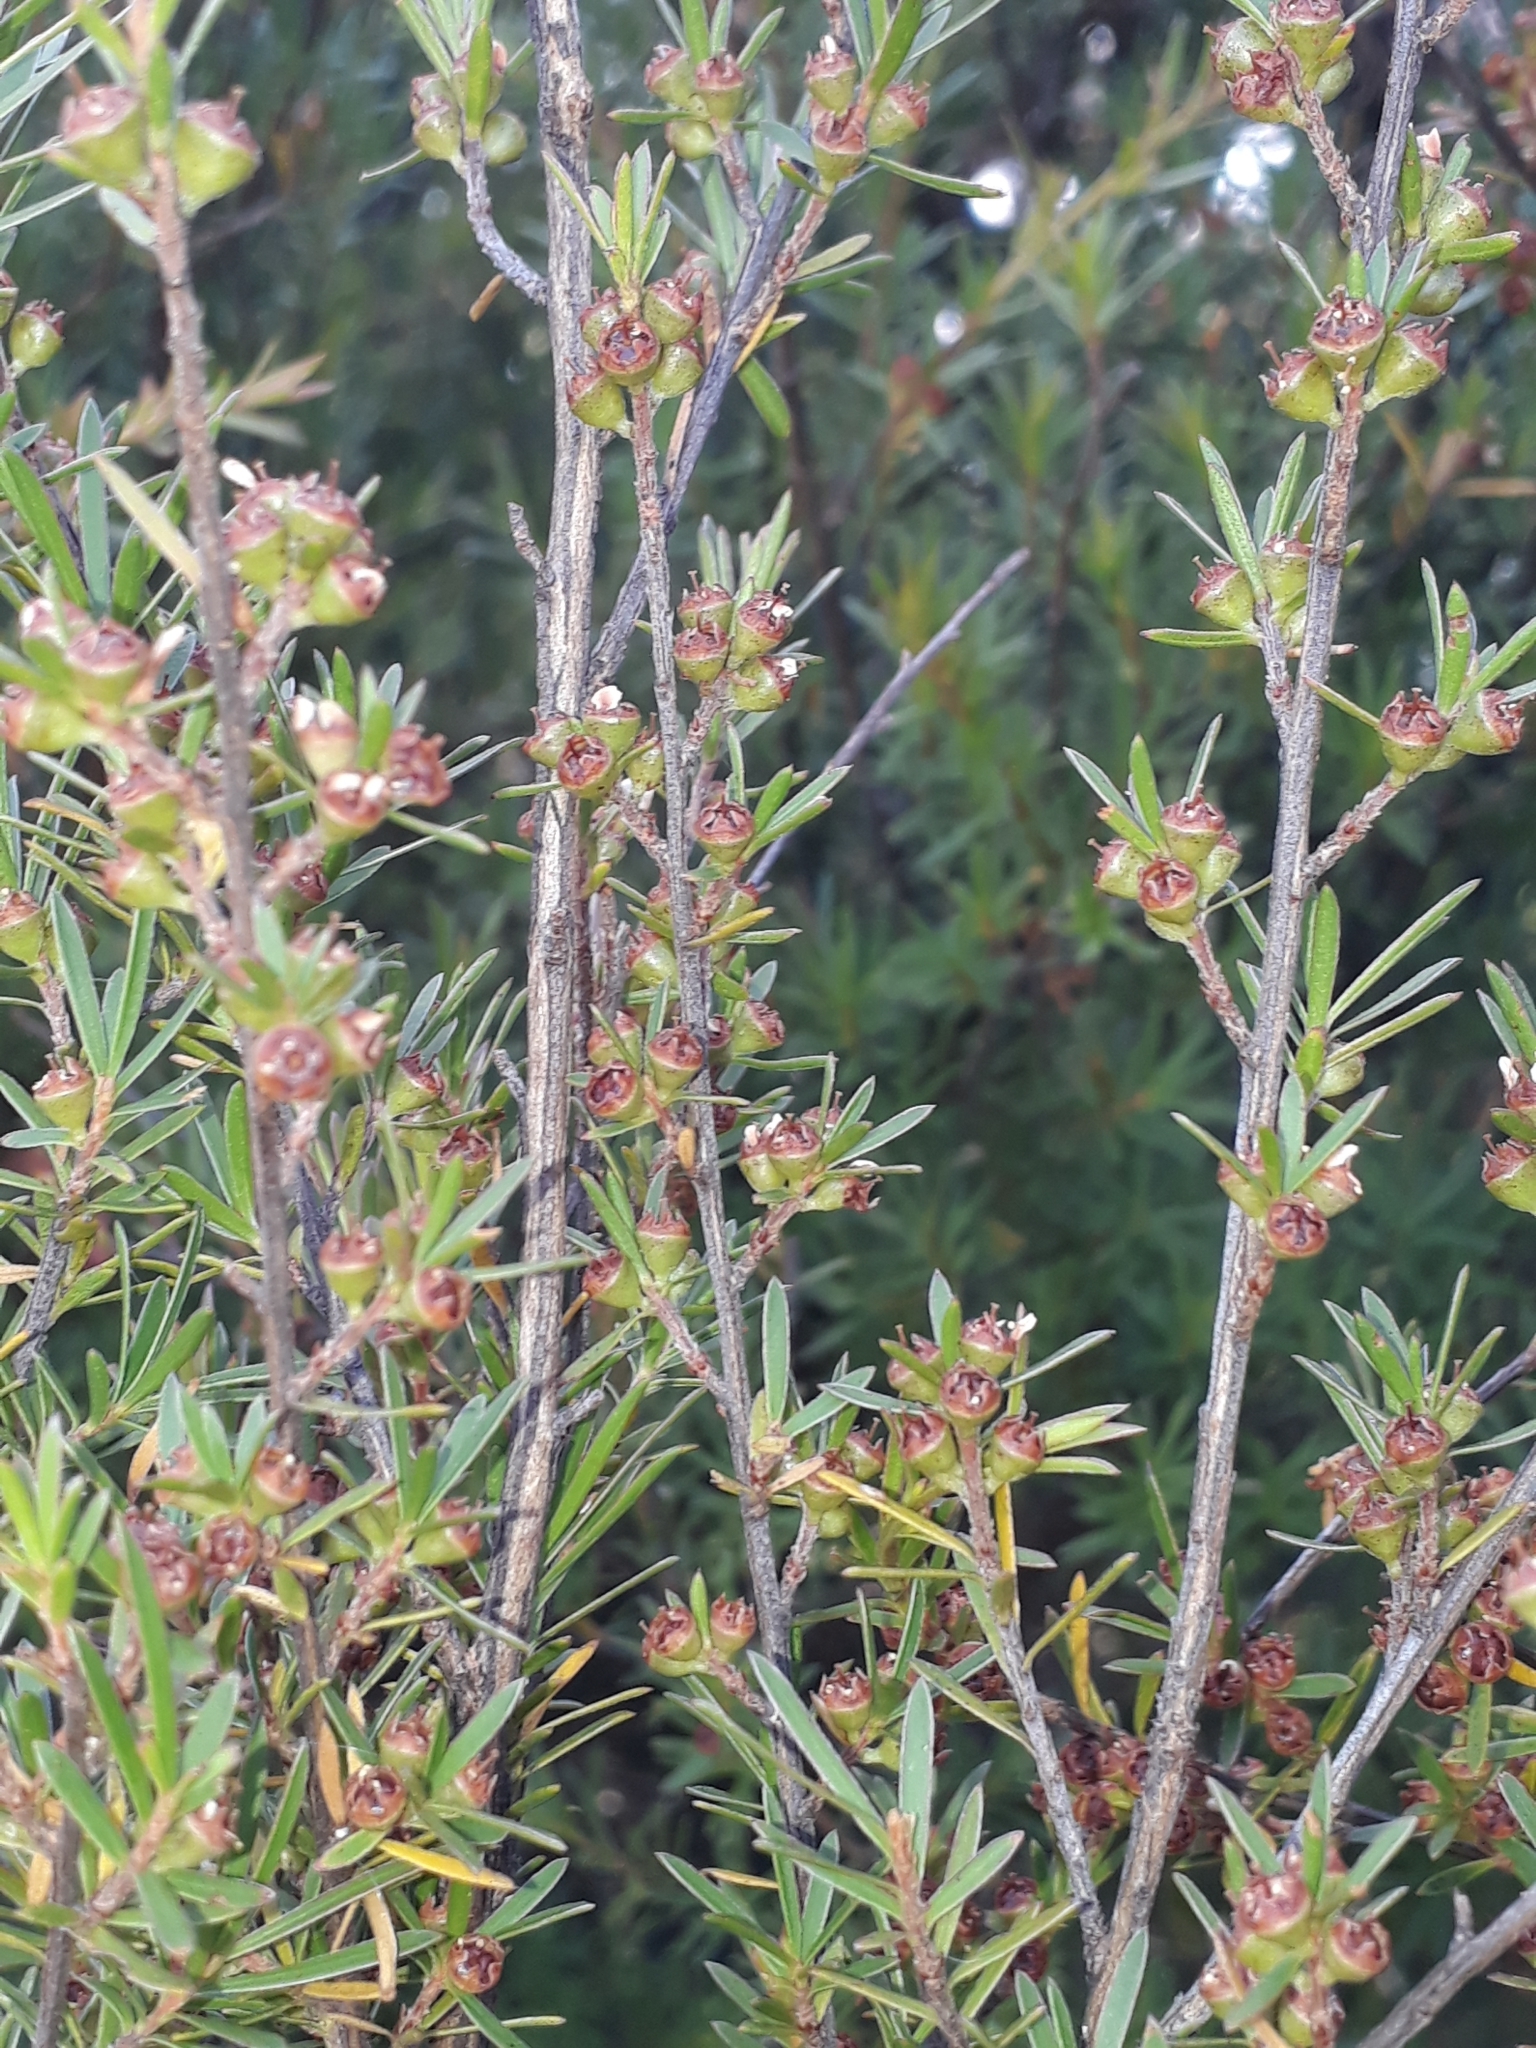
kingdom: Plantae
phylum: Tracheophyta
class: Magnoliopsida
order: Myrtales
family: Myrtaceae
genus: Kunzea
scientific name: Kunzea linearis
